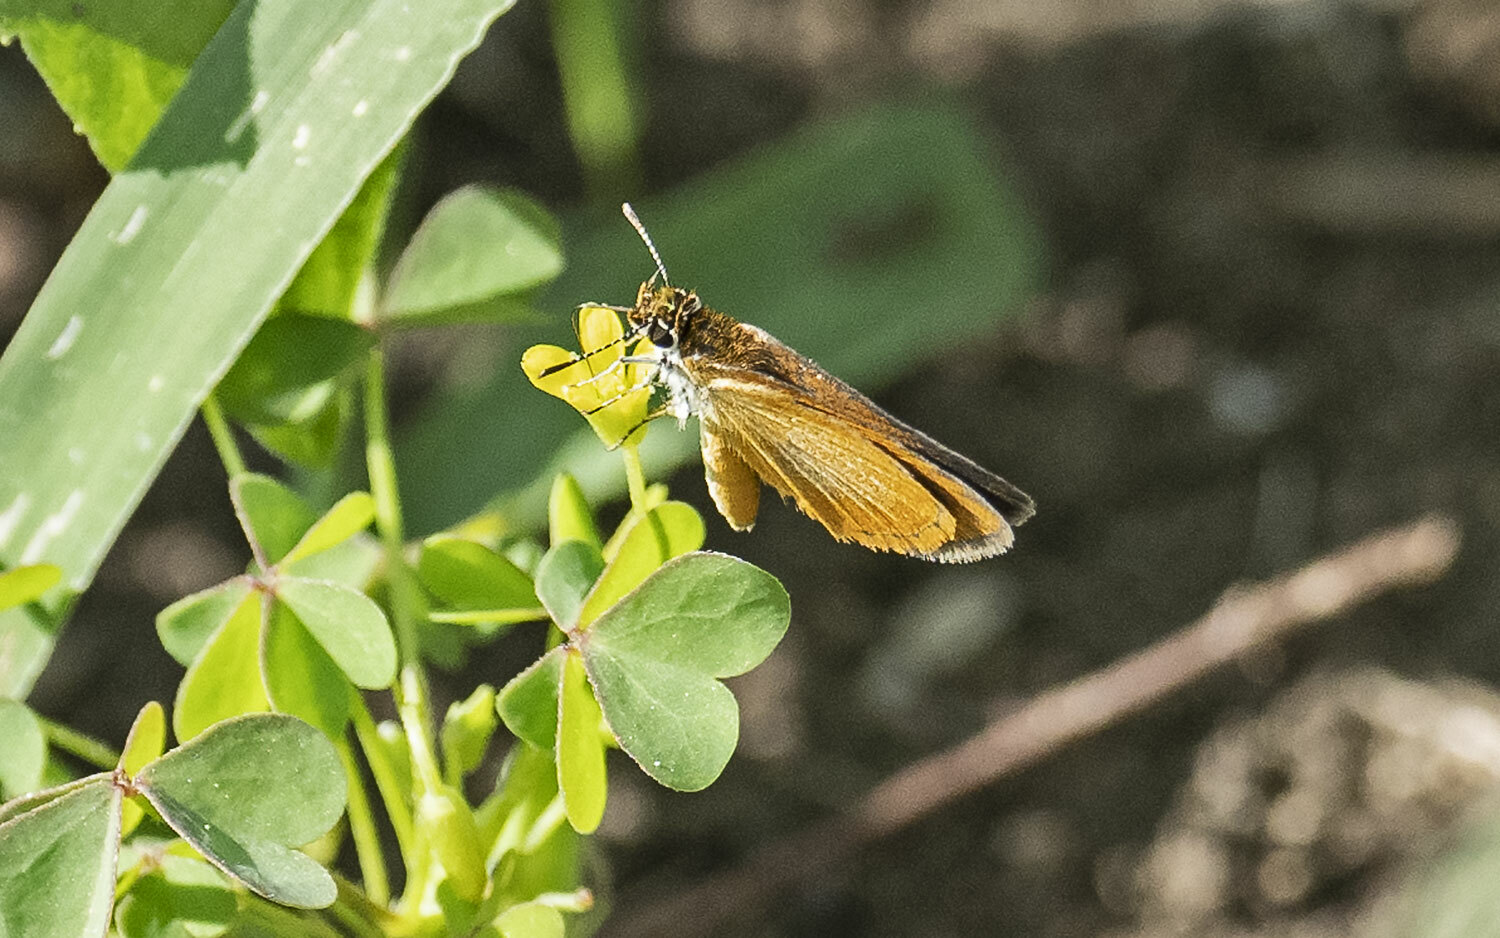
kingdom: Animalia
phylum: Arthropoda
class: Insecta
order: Lepidoptera
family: Hesperiidae
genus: Ancyloxypha
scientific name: Ancyloxypha numitor
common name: Least skipper
